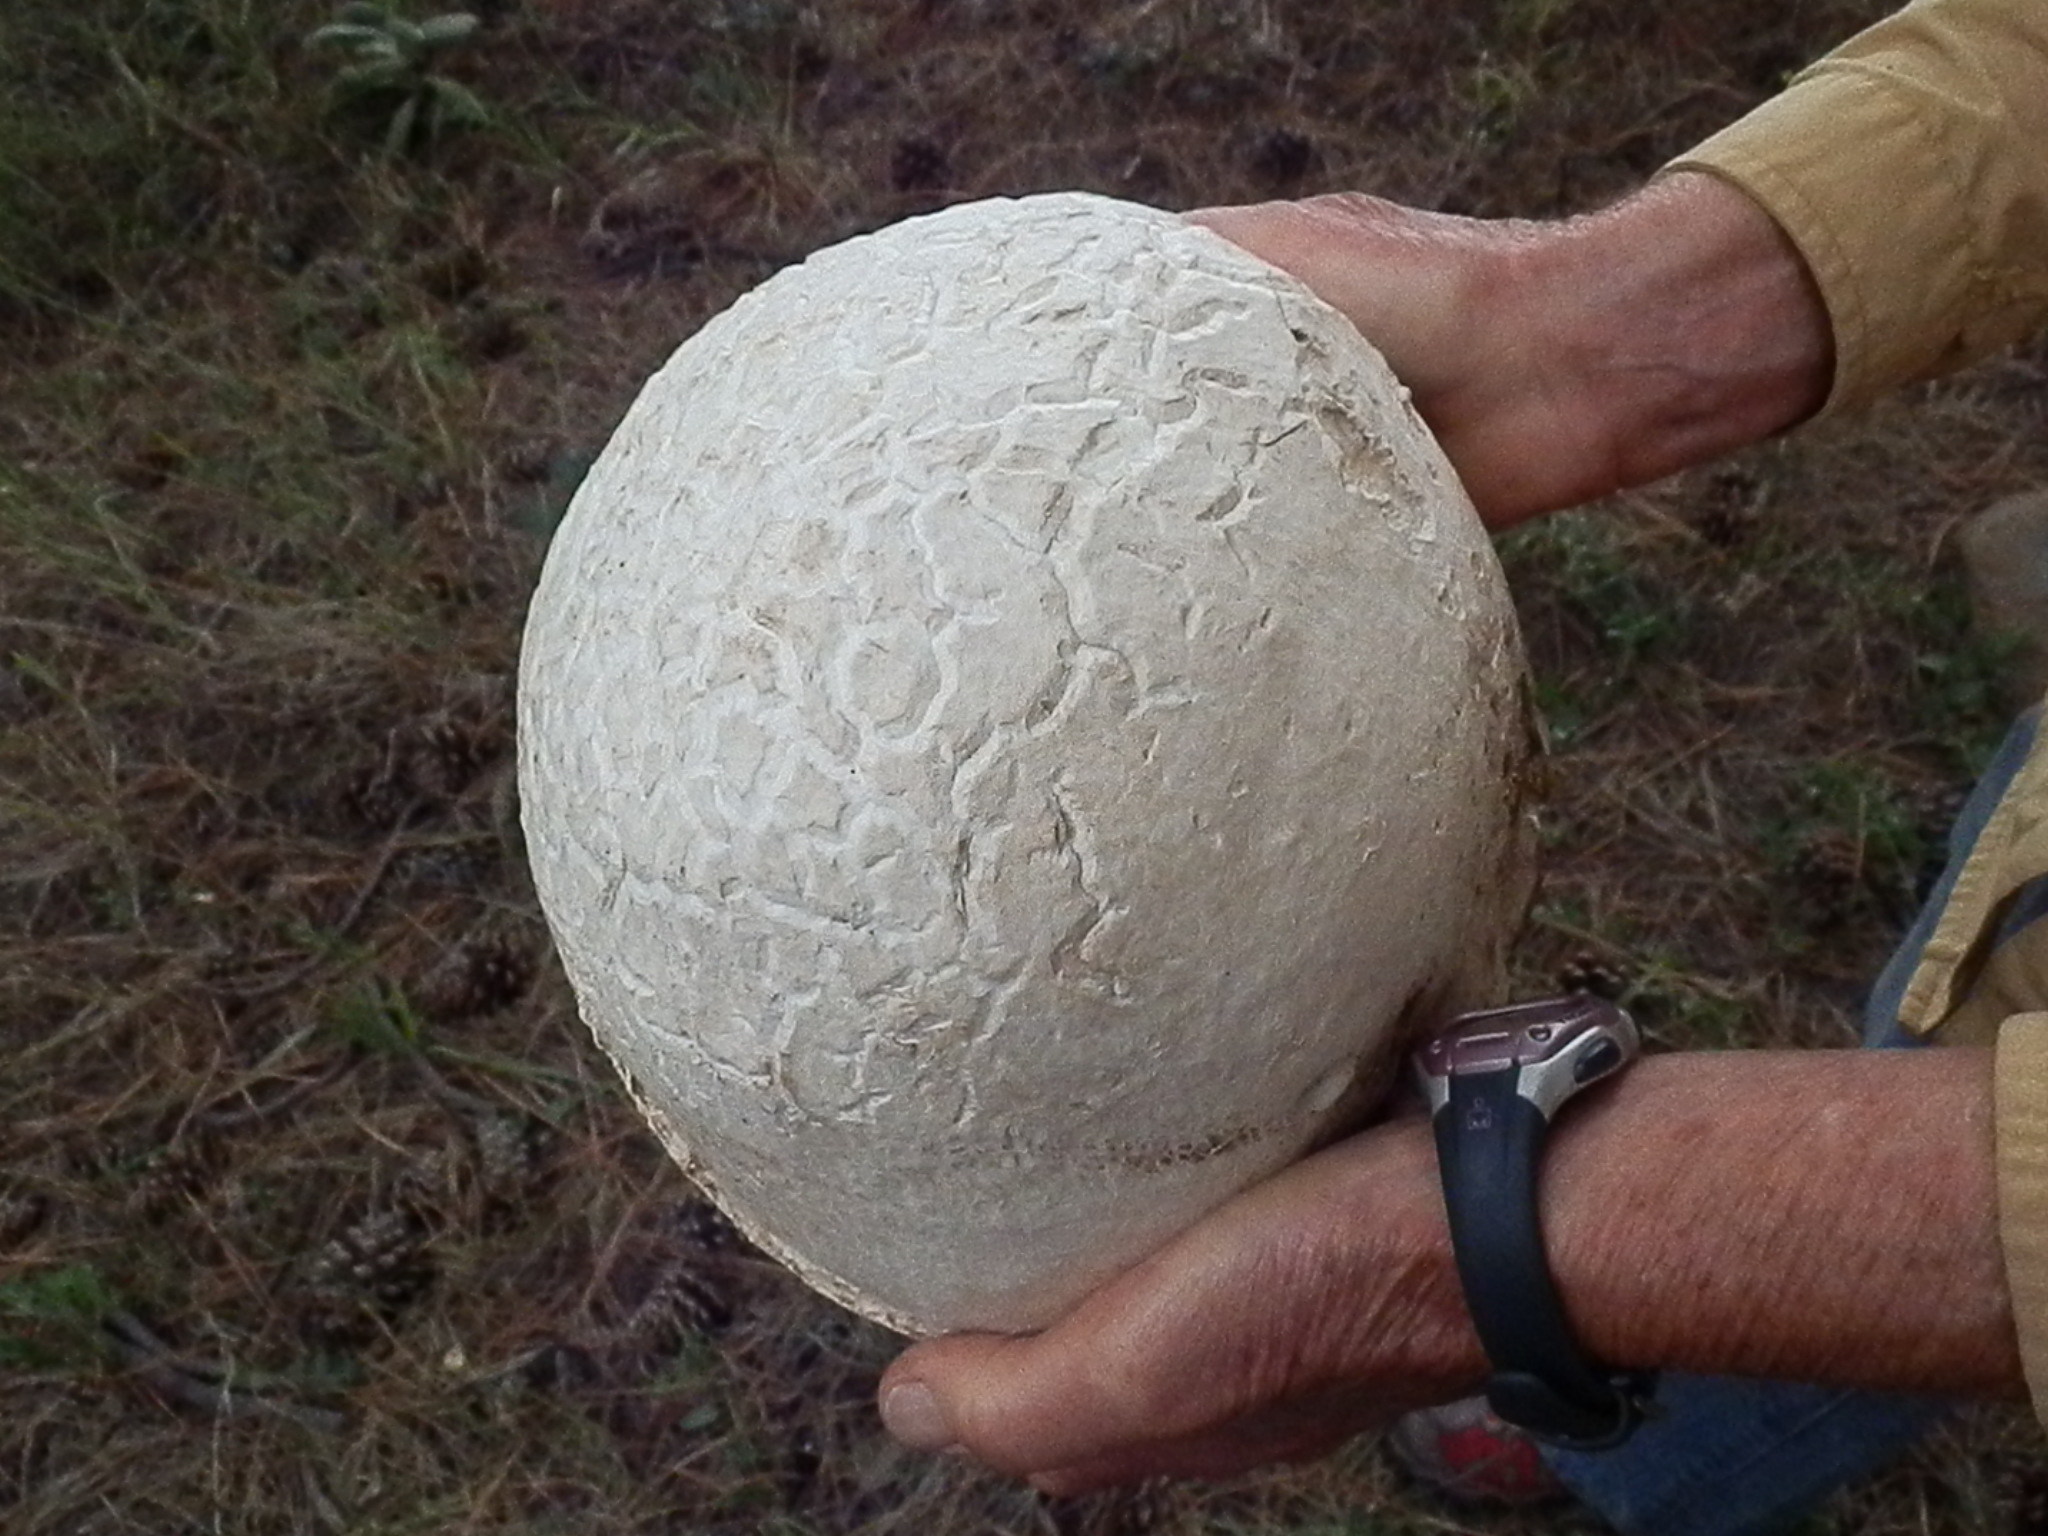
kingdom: Fungi
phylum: Basidiomycota
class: Agaricomycetes
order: Agaricales
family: Lycoperdaceae
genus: Calvatia
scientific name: Calvatia booniana
